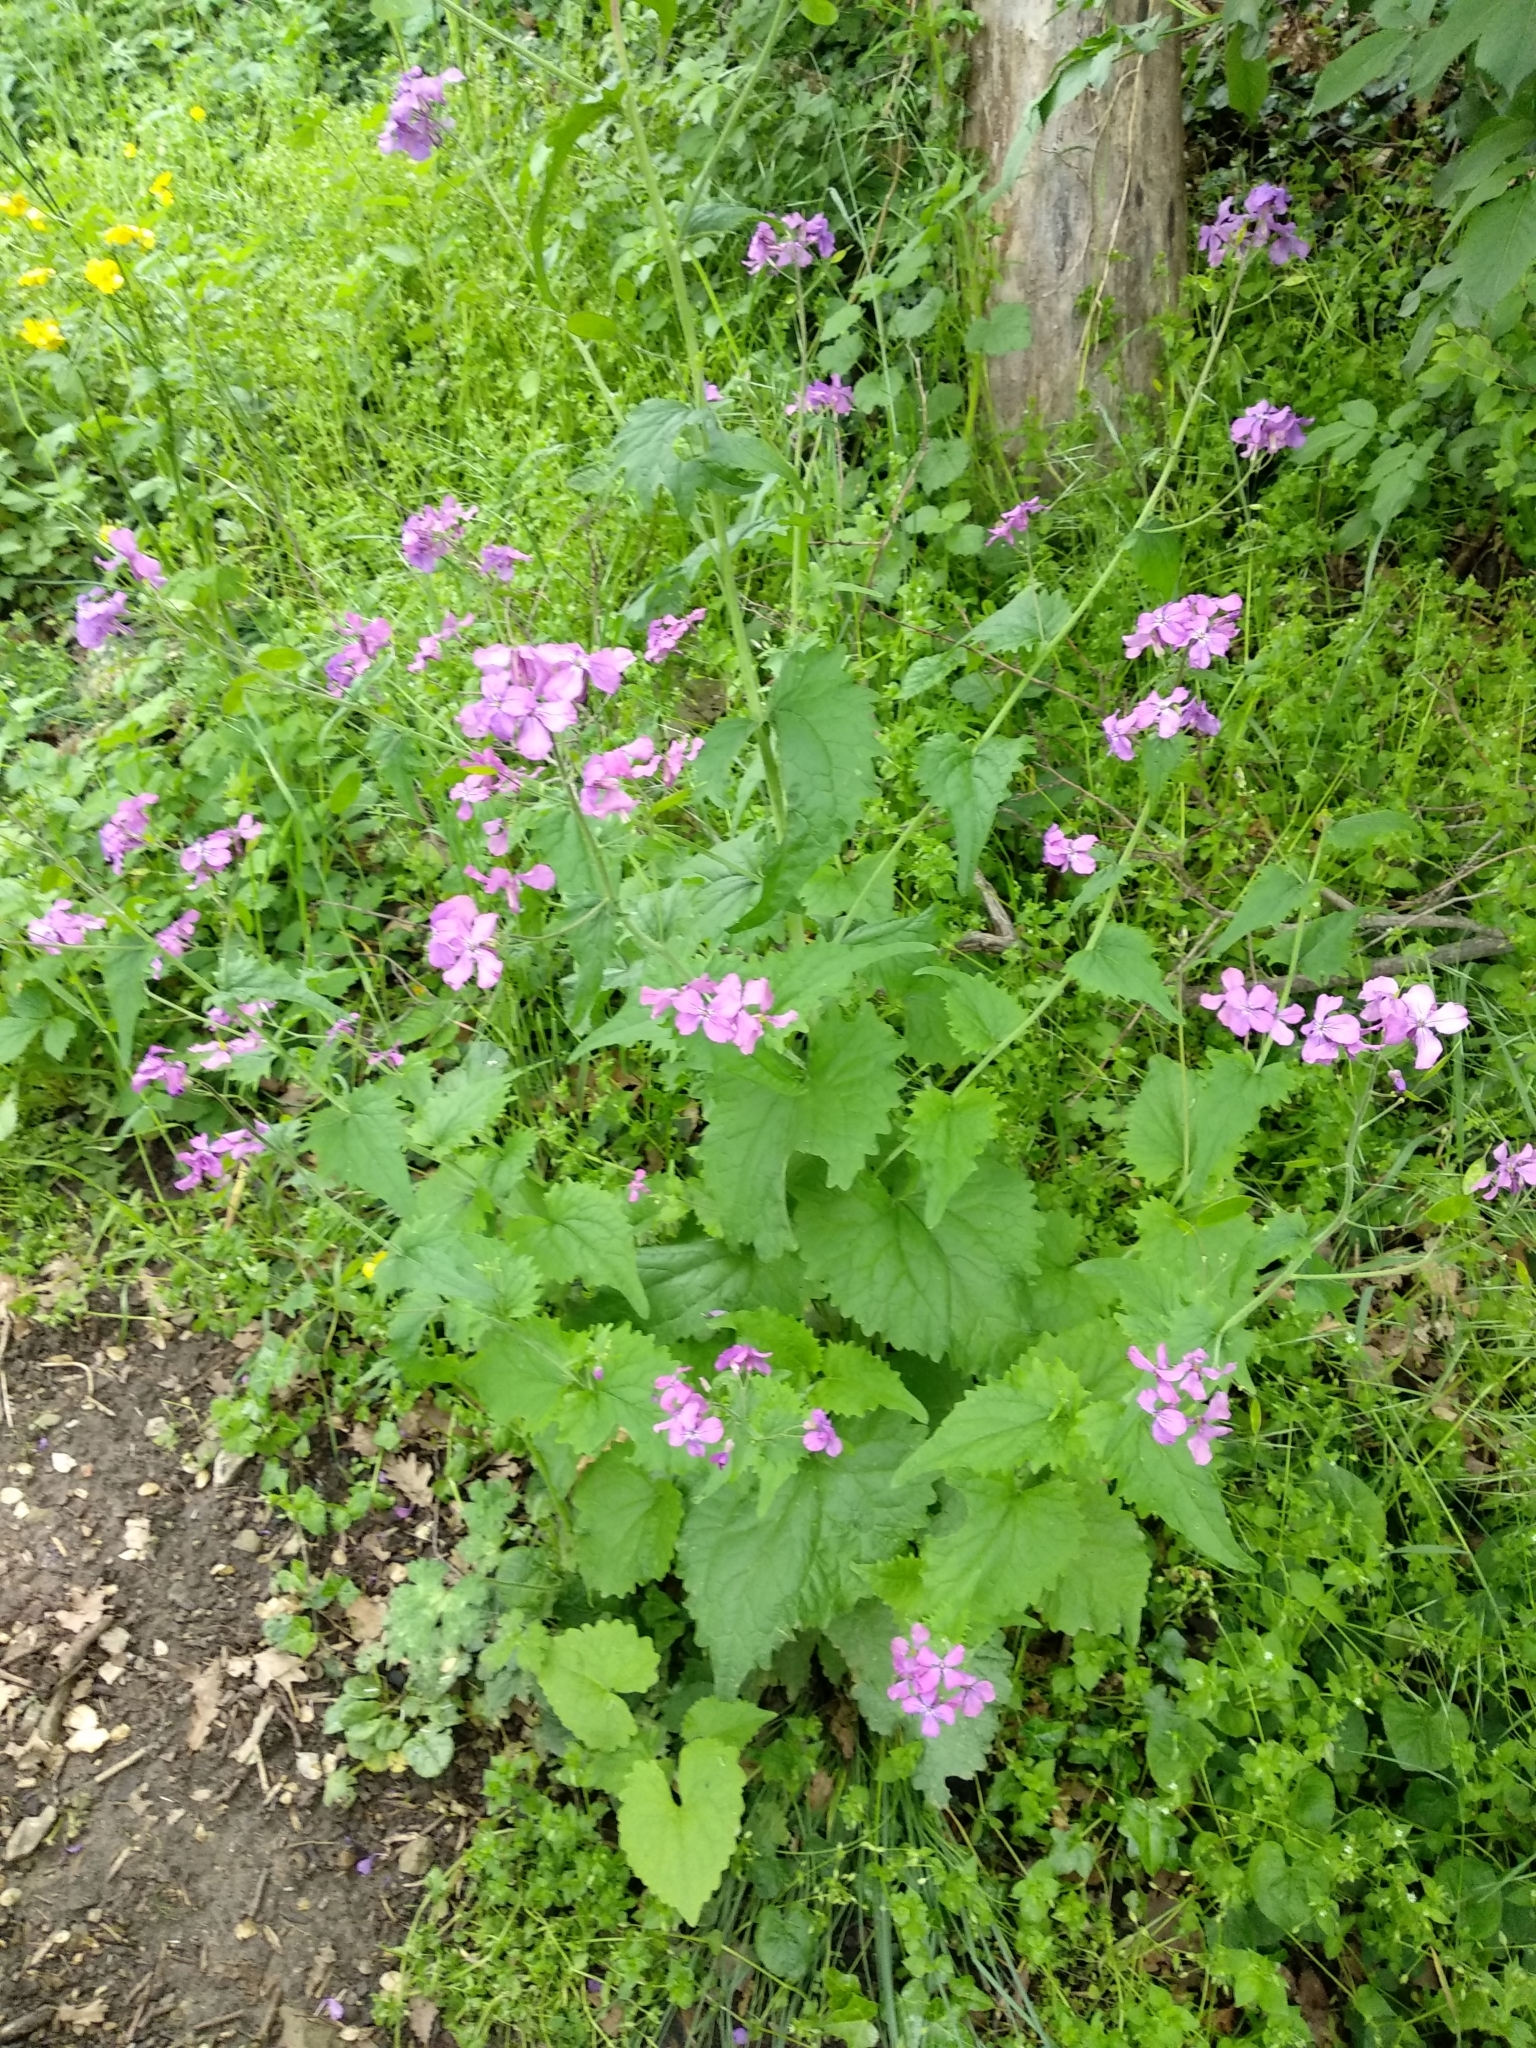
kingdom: Plantae
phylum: Tracheophyta
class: Magnoliopsida
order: Brassicales
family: Brassicaceae
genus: Lunaria
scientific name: Lunaria annua
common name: Honesty
